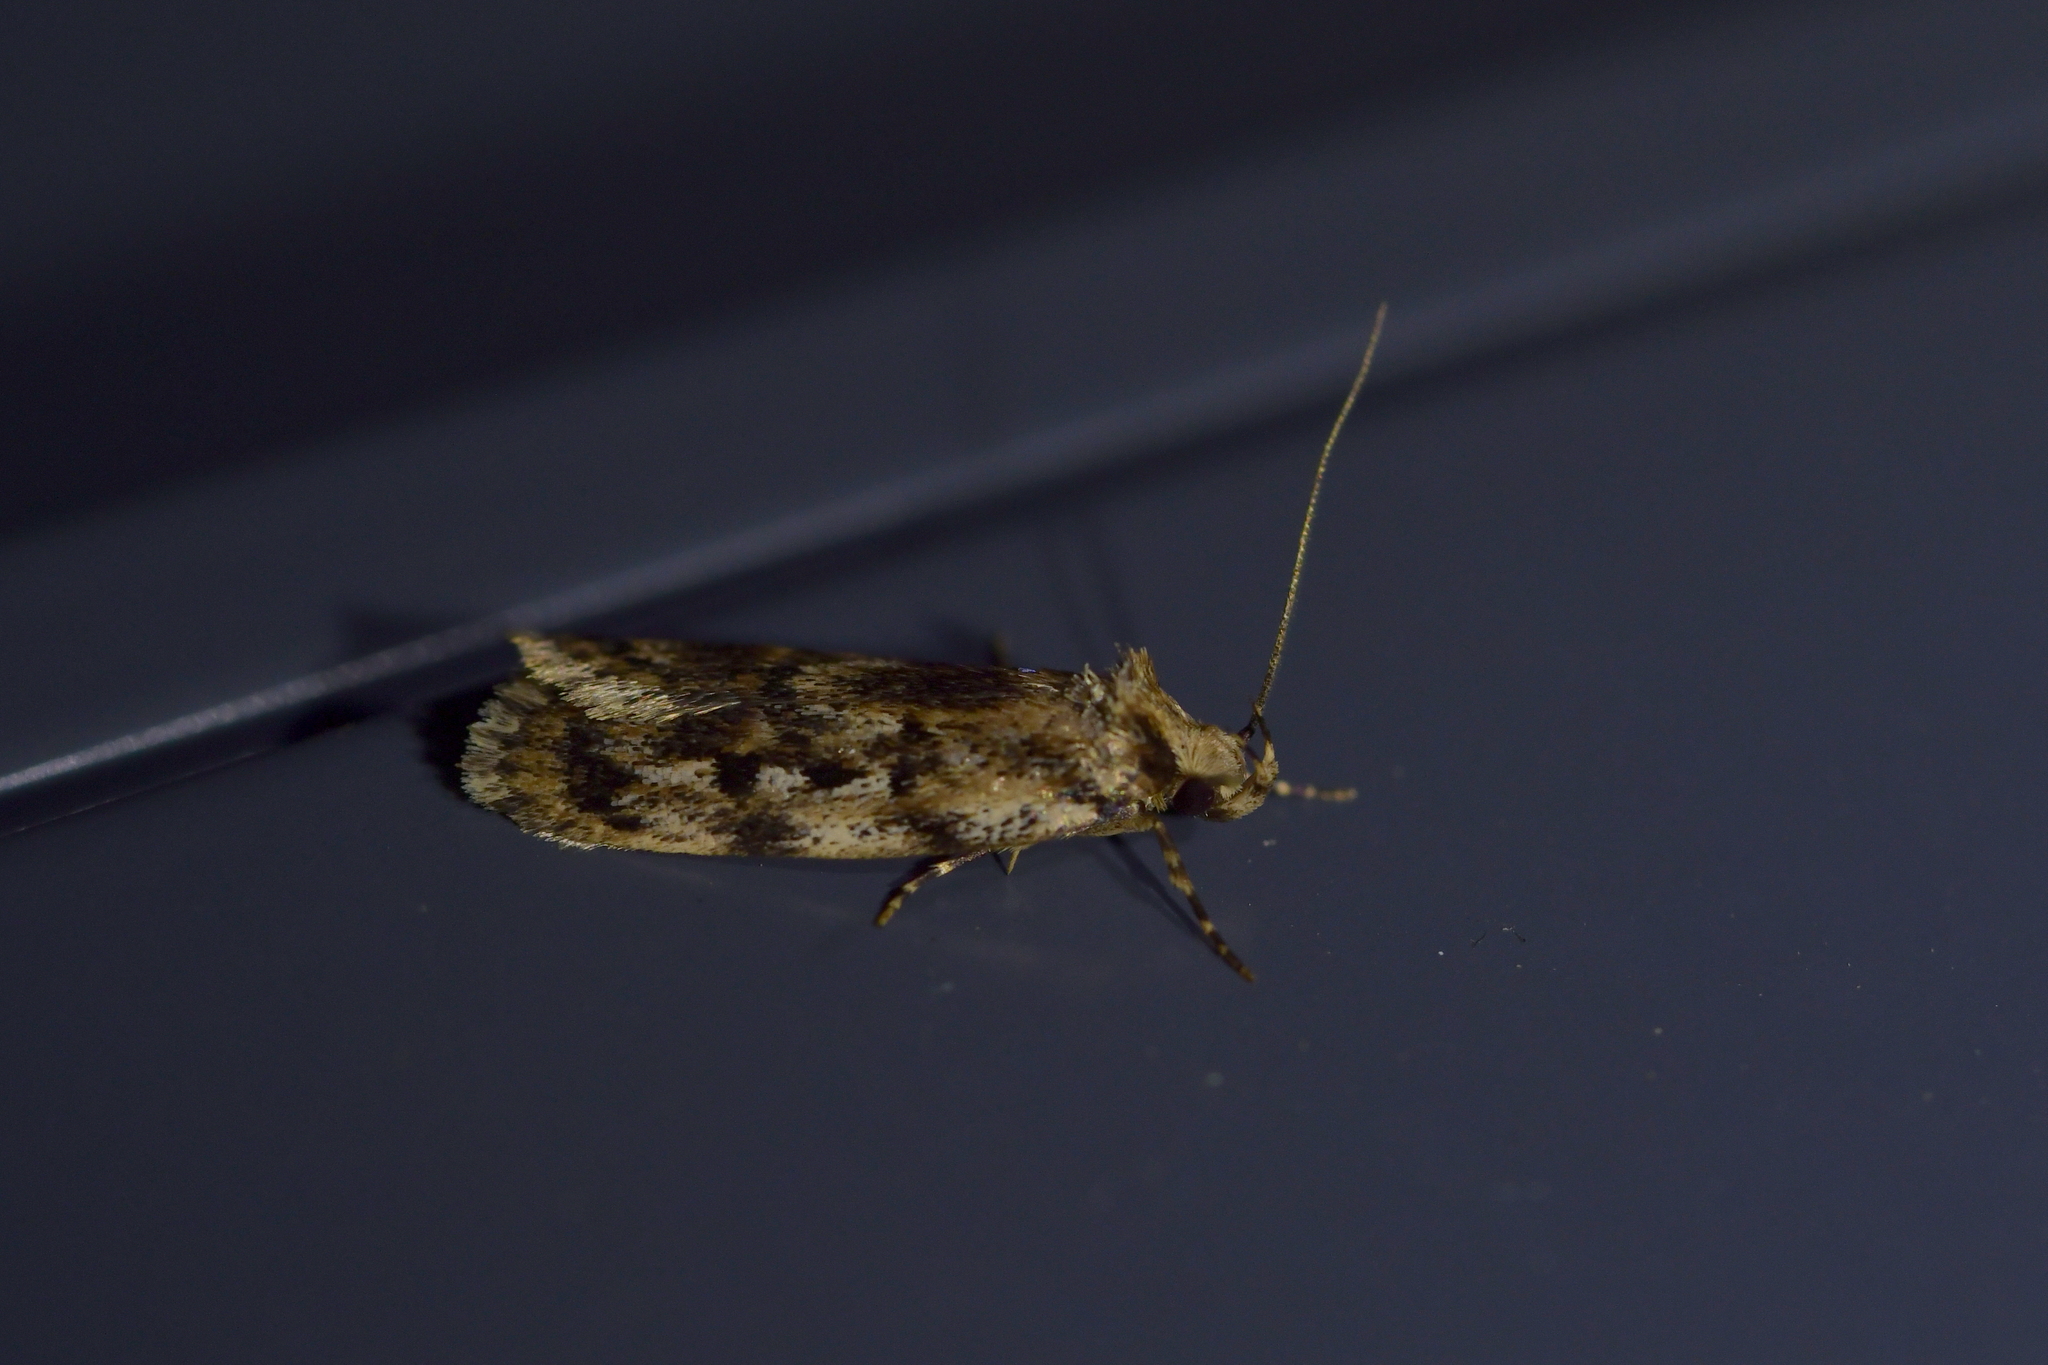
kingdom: Animalia
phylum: Arthropoda
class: Insecta
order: Lepidoptera
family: Oecophoridae
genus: Barea
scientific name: Barea exarcha
